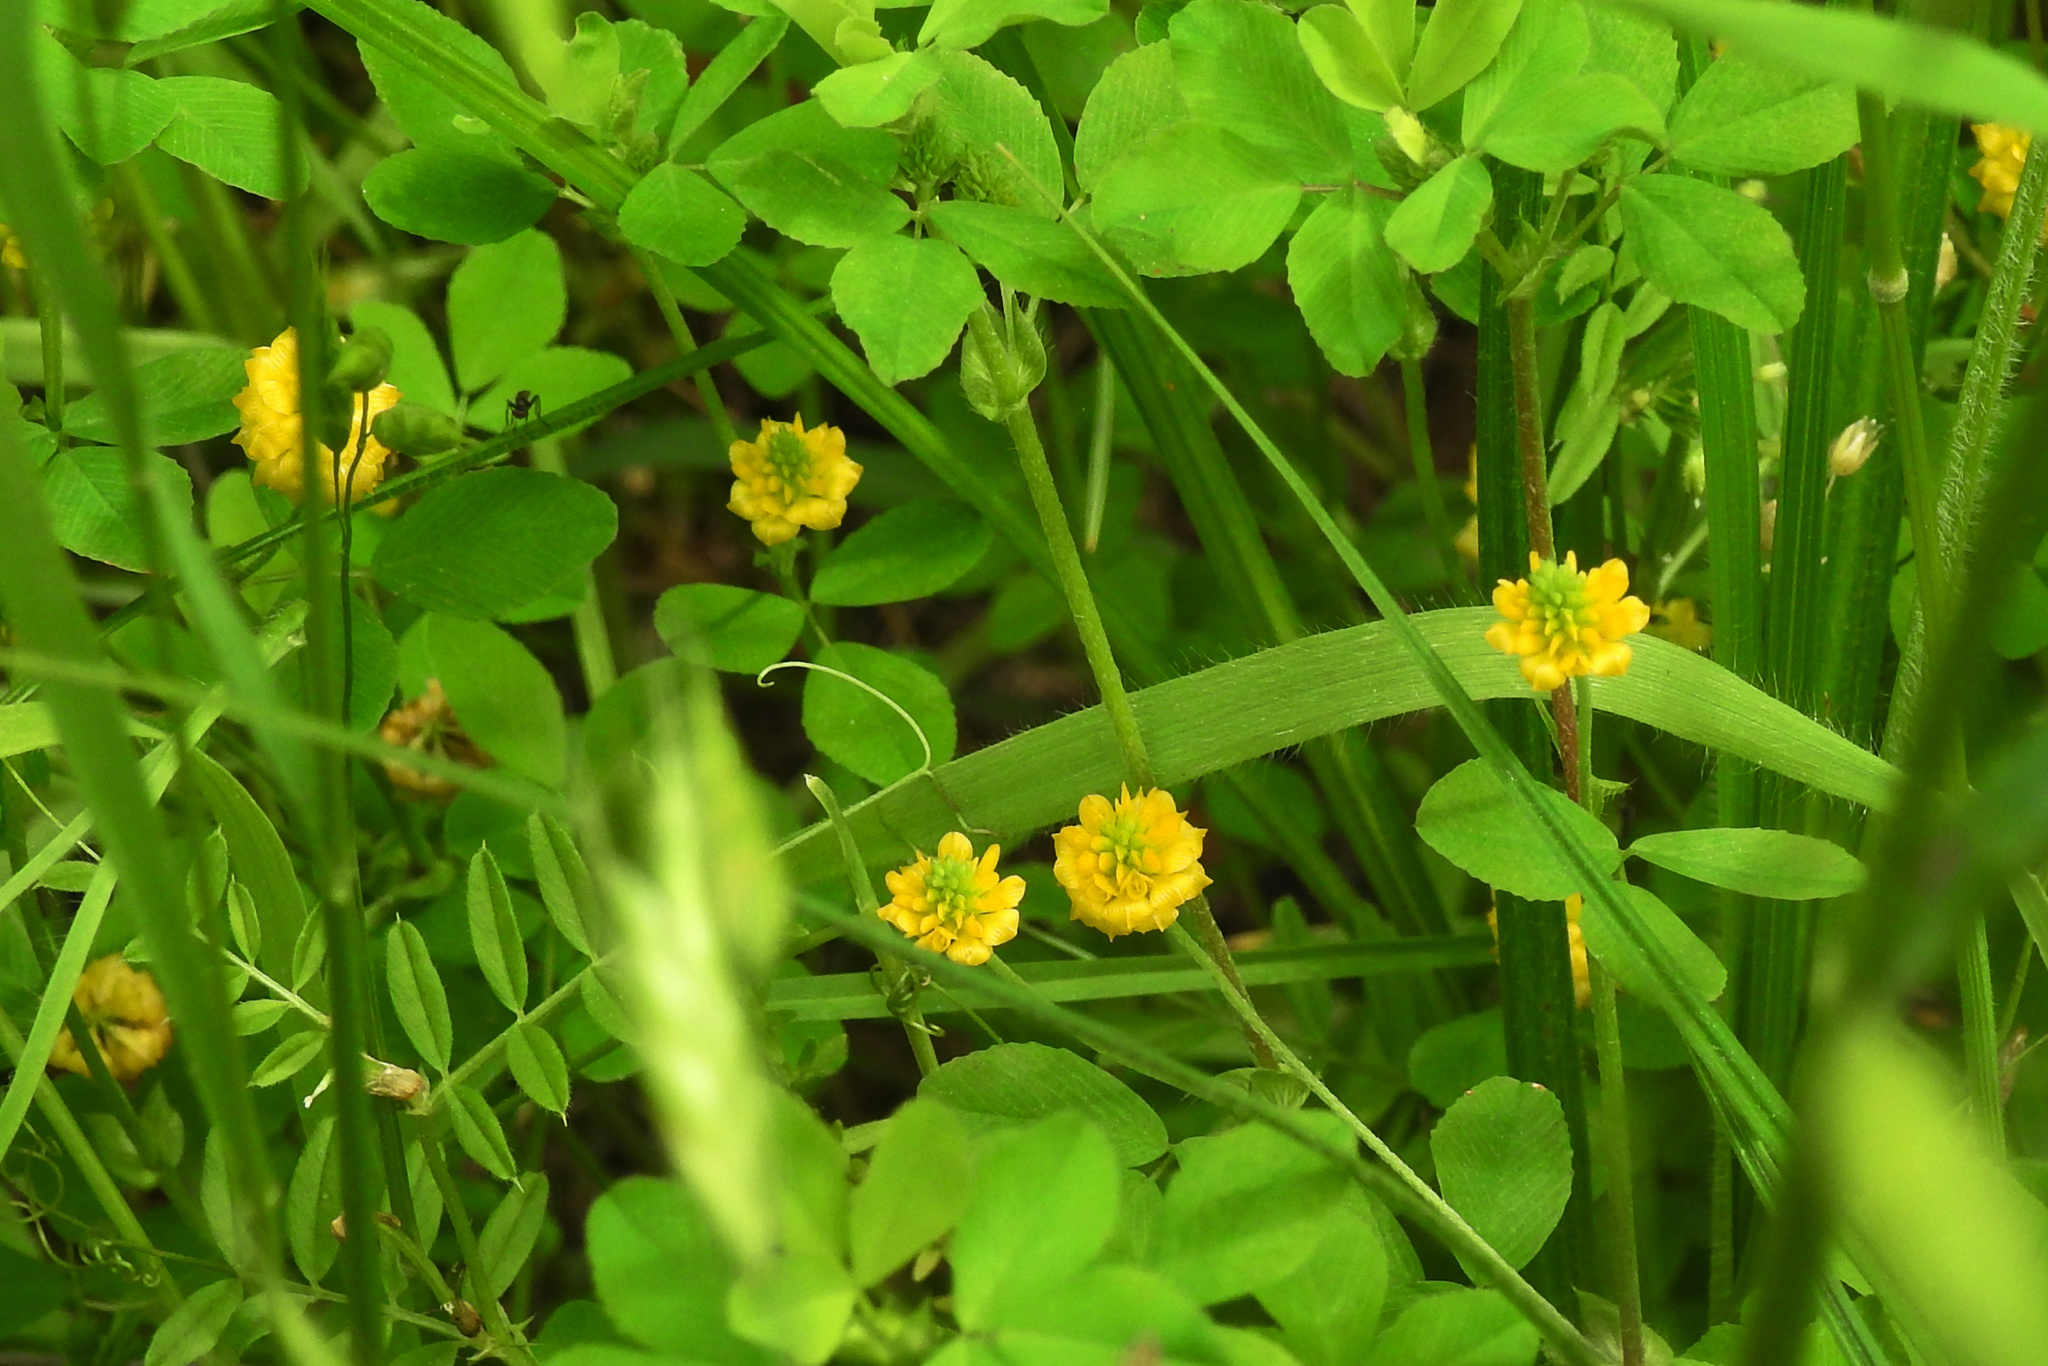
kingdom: Plantae
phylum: Tracheophyta
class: Magnoliopsida
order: Fabales
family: Fabaceae
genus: Trifolium
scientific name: Trifolium campestre
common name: Field clover
